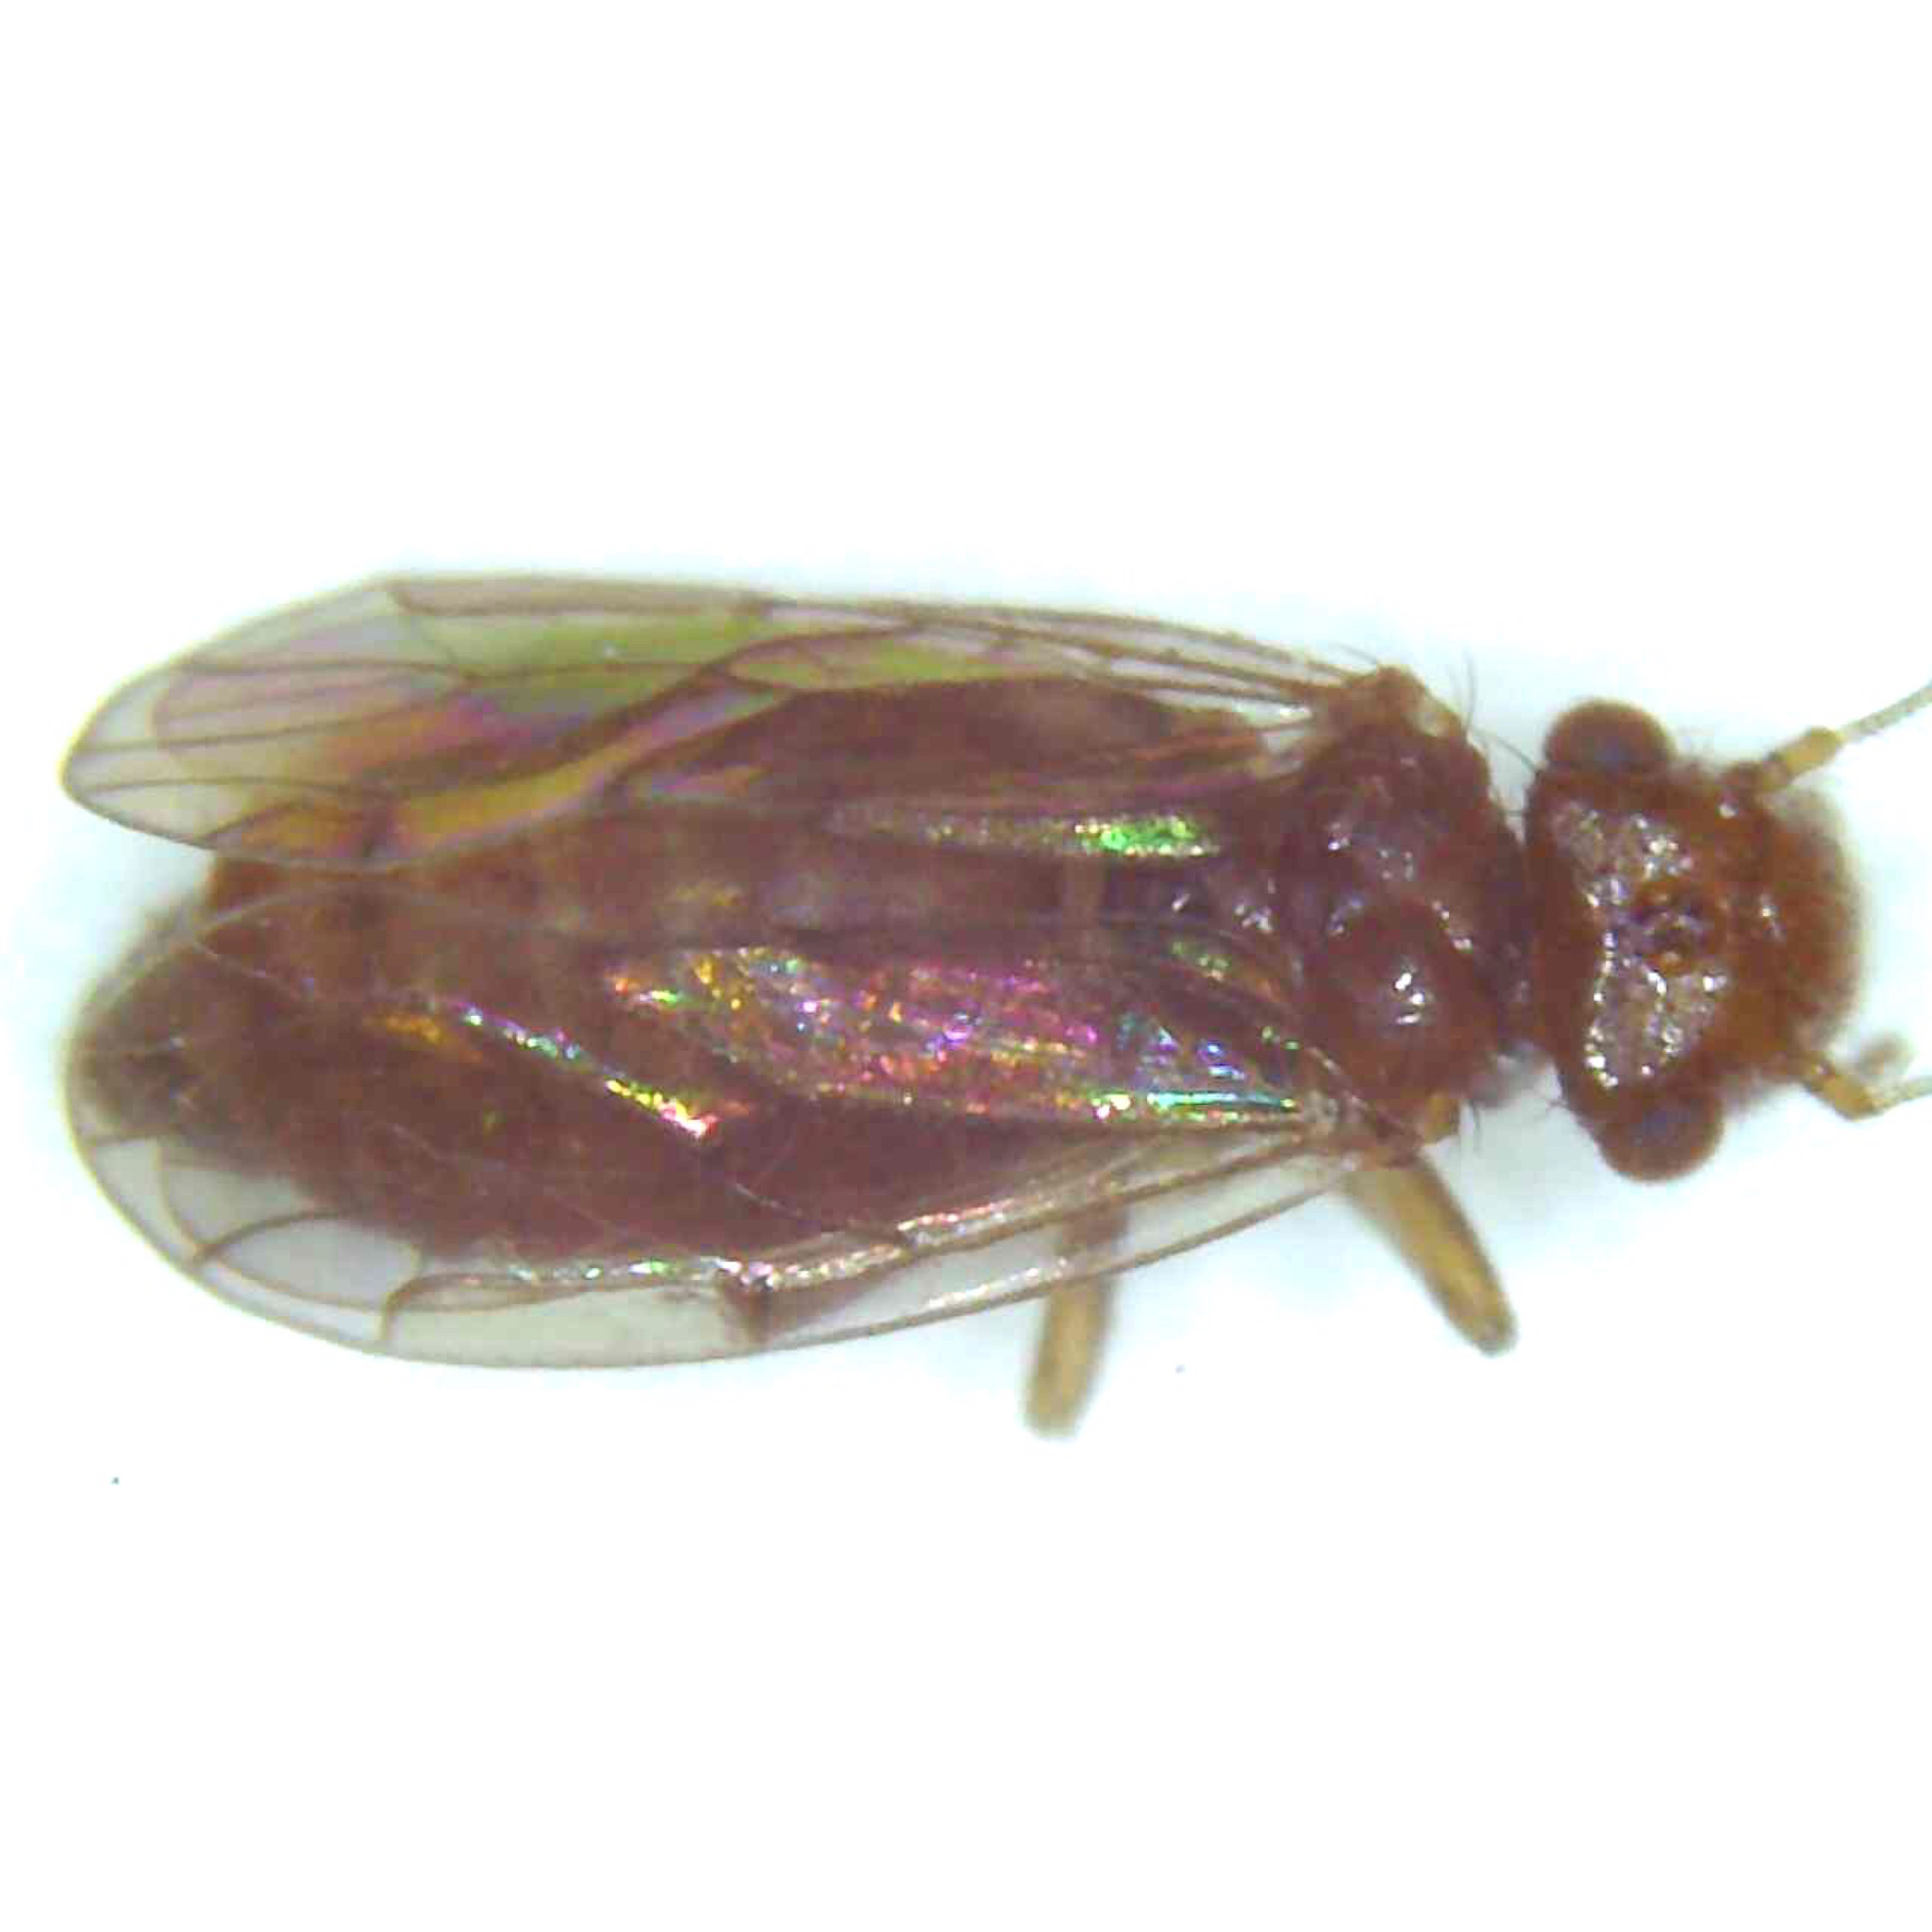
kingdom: Animalia
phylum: Arthropoda
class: Insecta
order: Psocodea
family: Ectopsocidae
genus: Ectopsocus
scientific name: Ectopsocus vachoni
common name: Medium-sized bark louse
